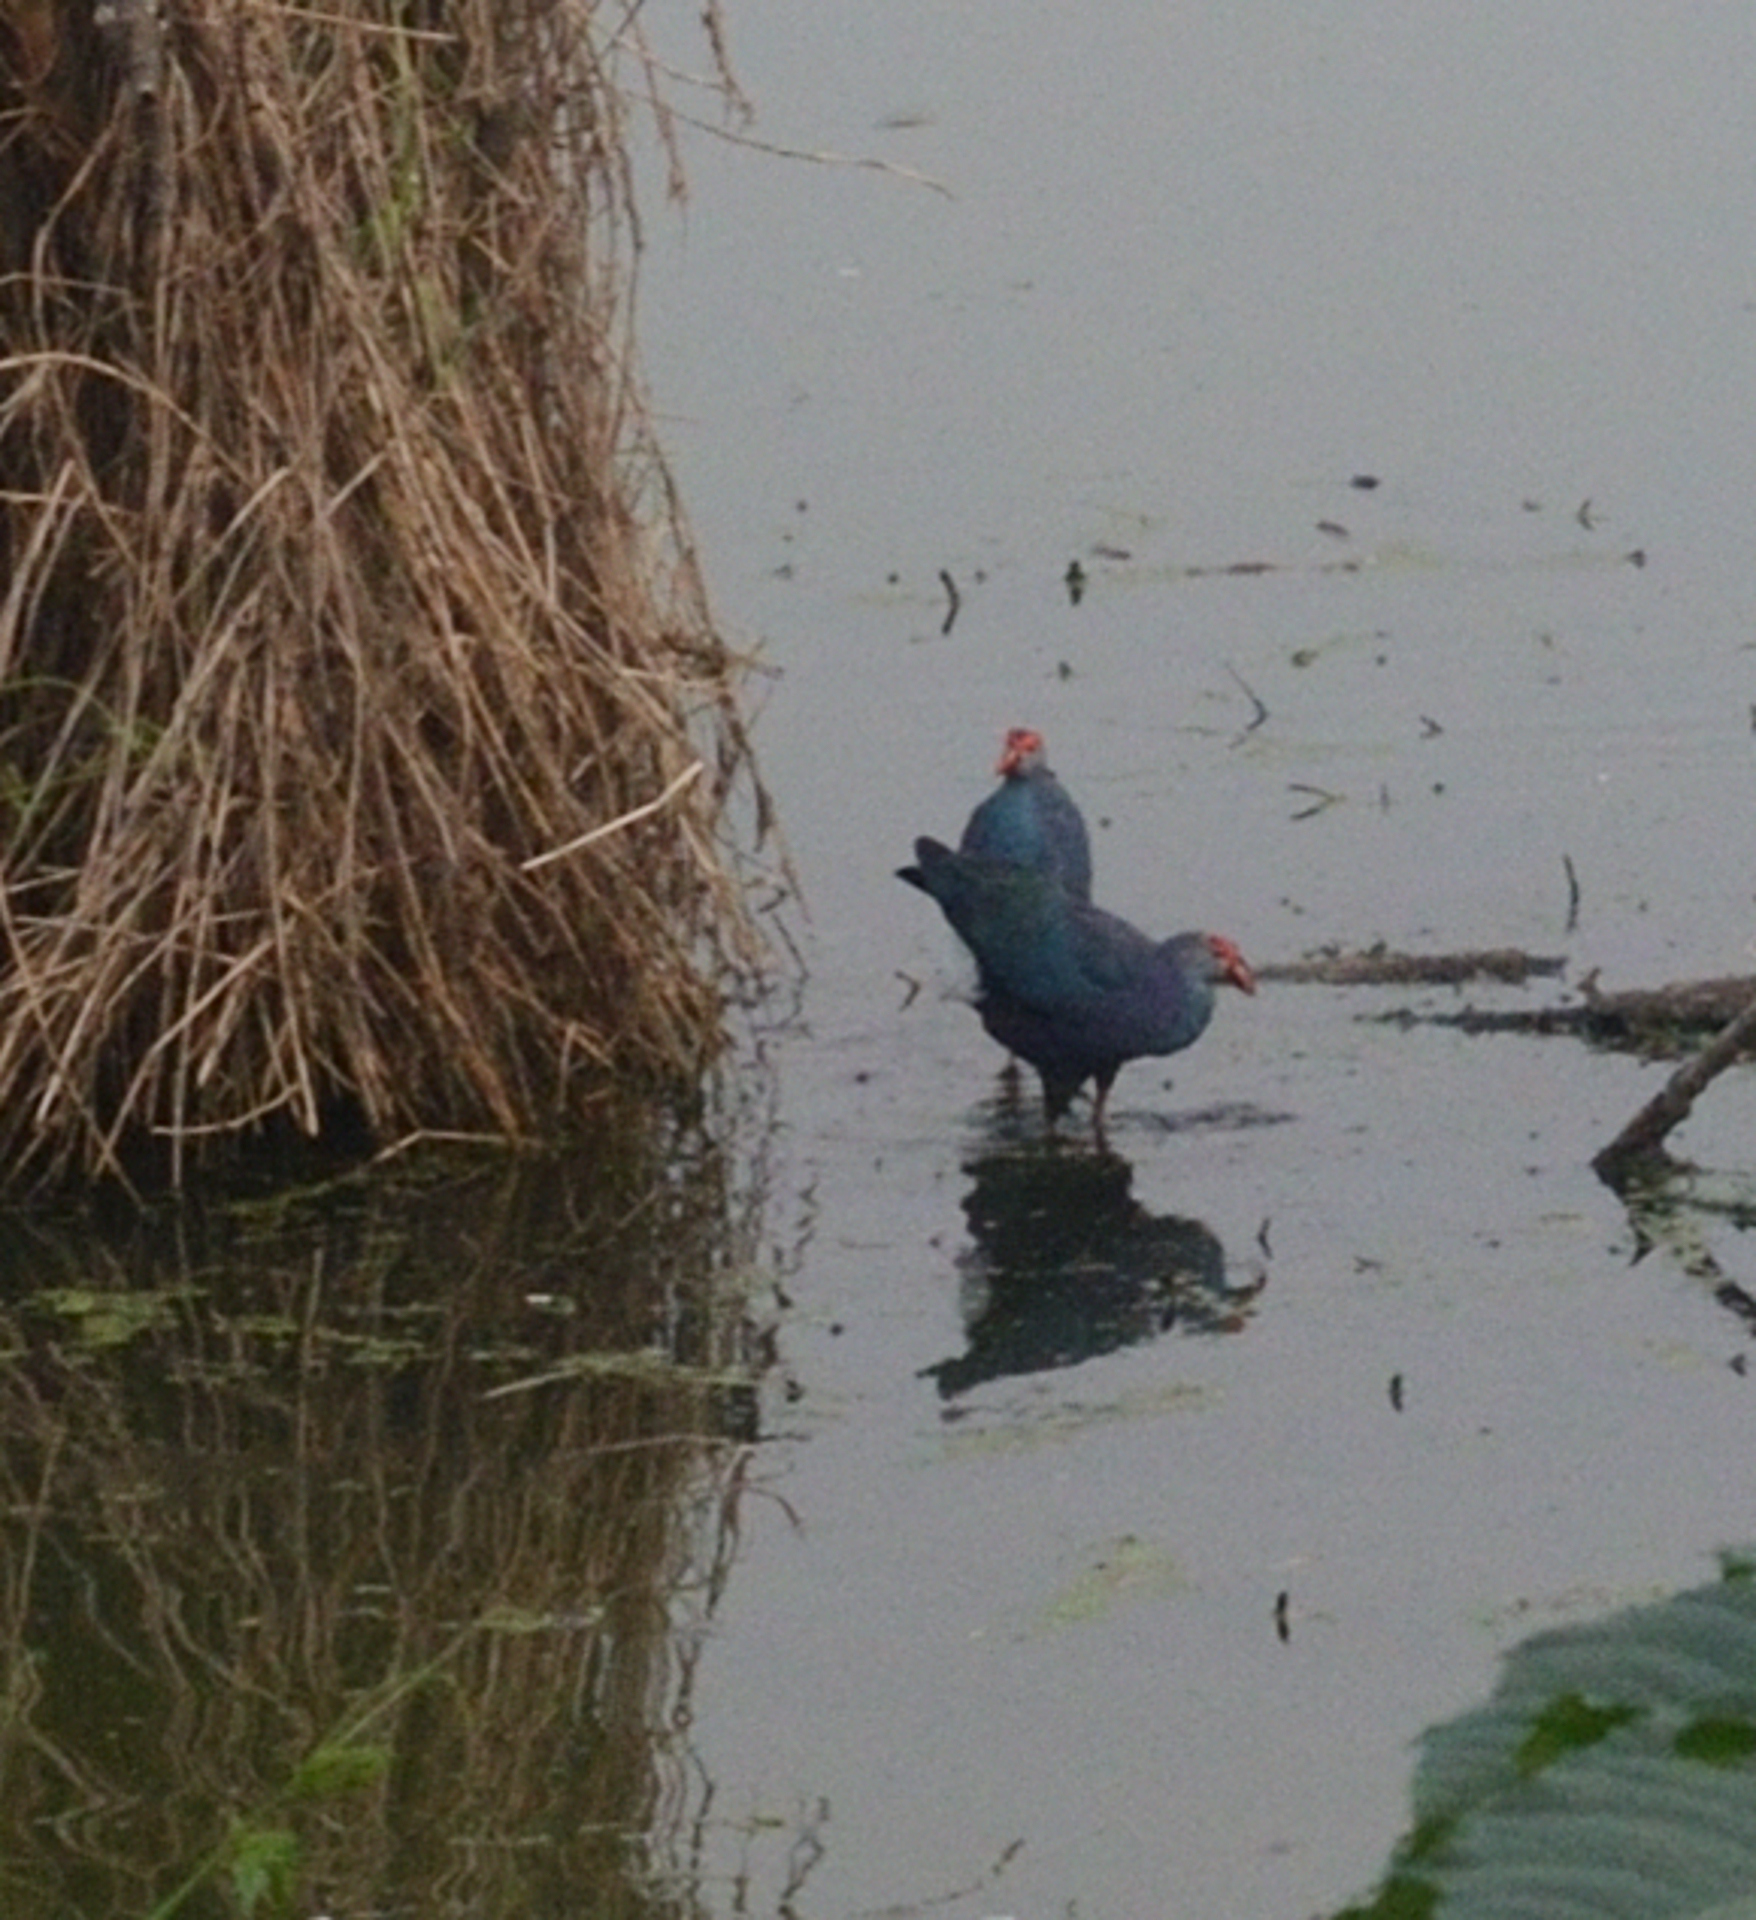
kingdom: Animalia
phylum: Chordata
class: Aves
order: Gruiformes
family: Rallidae
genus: Porphyrio
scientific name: Porphyrio porphyrio
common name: Purple swamphen
